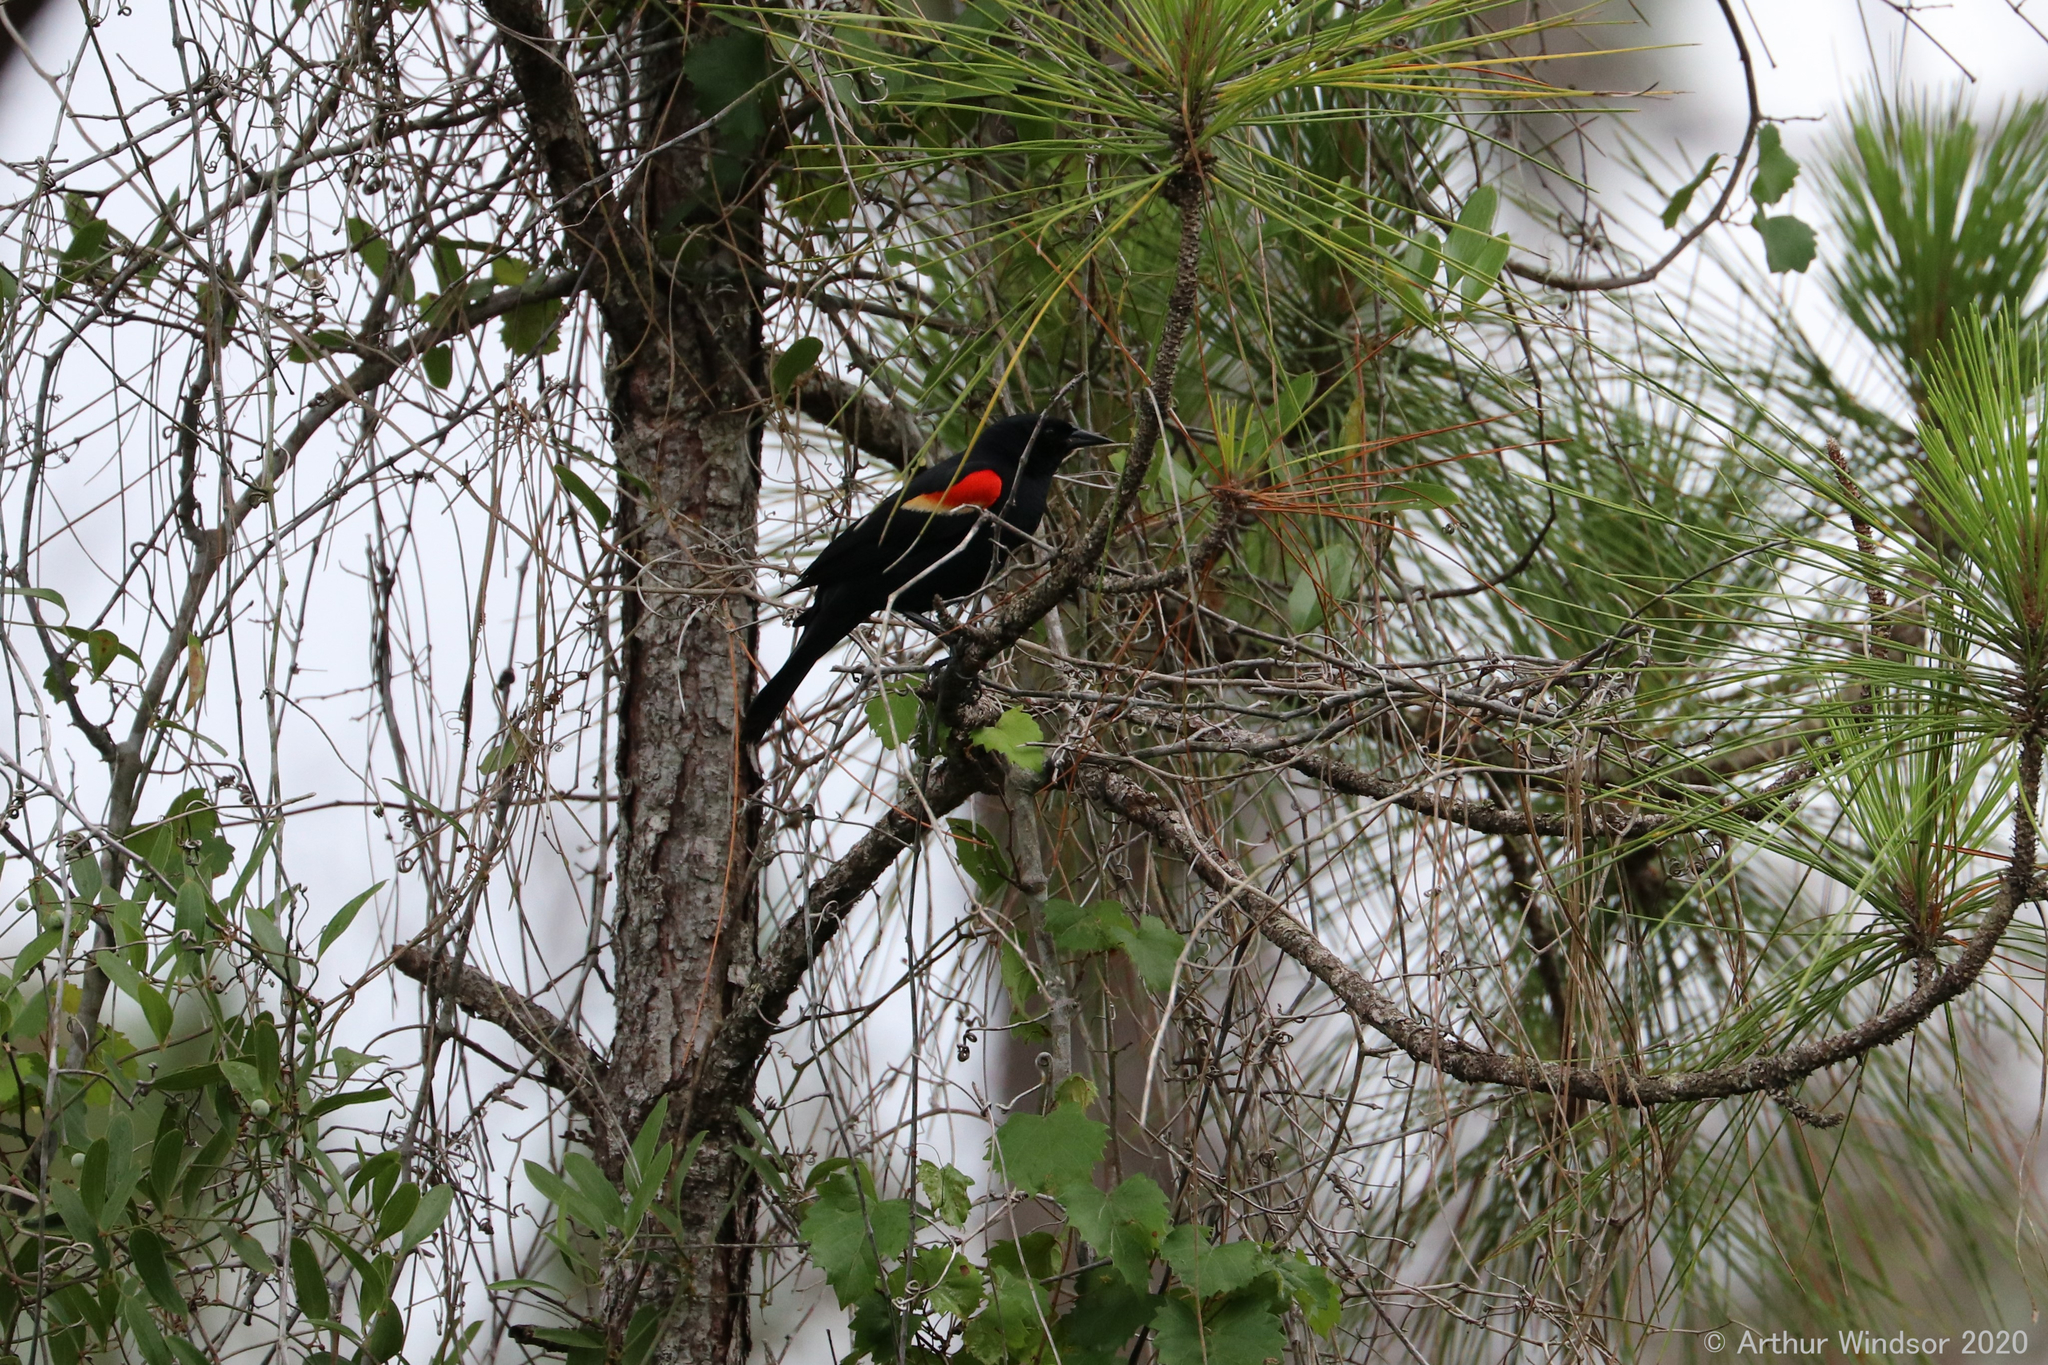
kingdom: Animalia
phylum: Chordata
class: Aves
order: Passeriformes
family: Icteridae
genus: Agelaius
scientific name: Agelaius phoeniceus
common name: Red-winged blackbird
